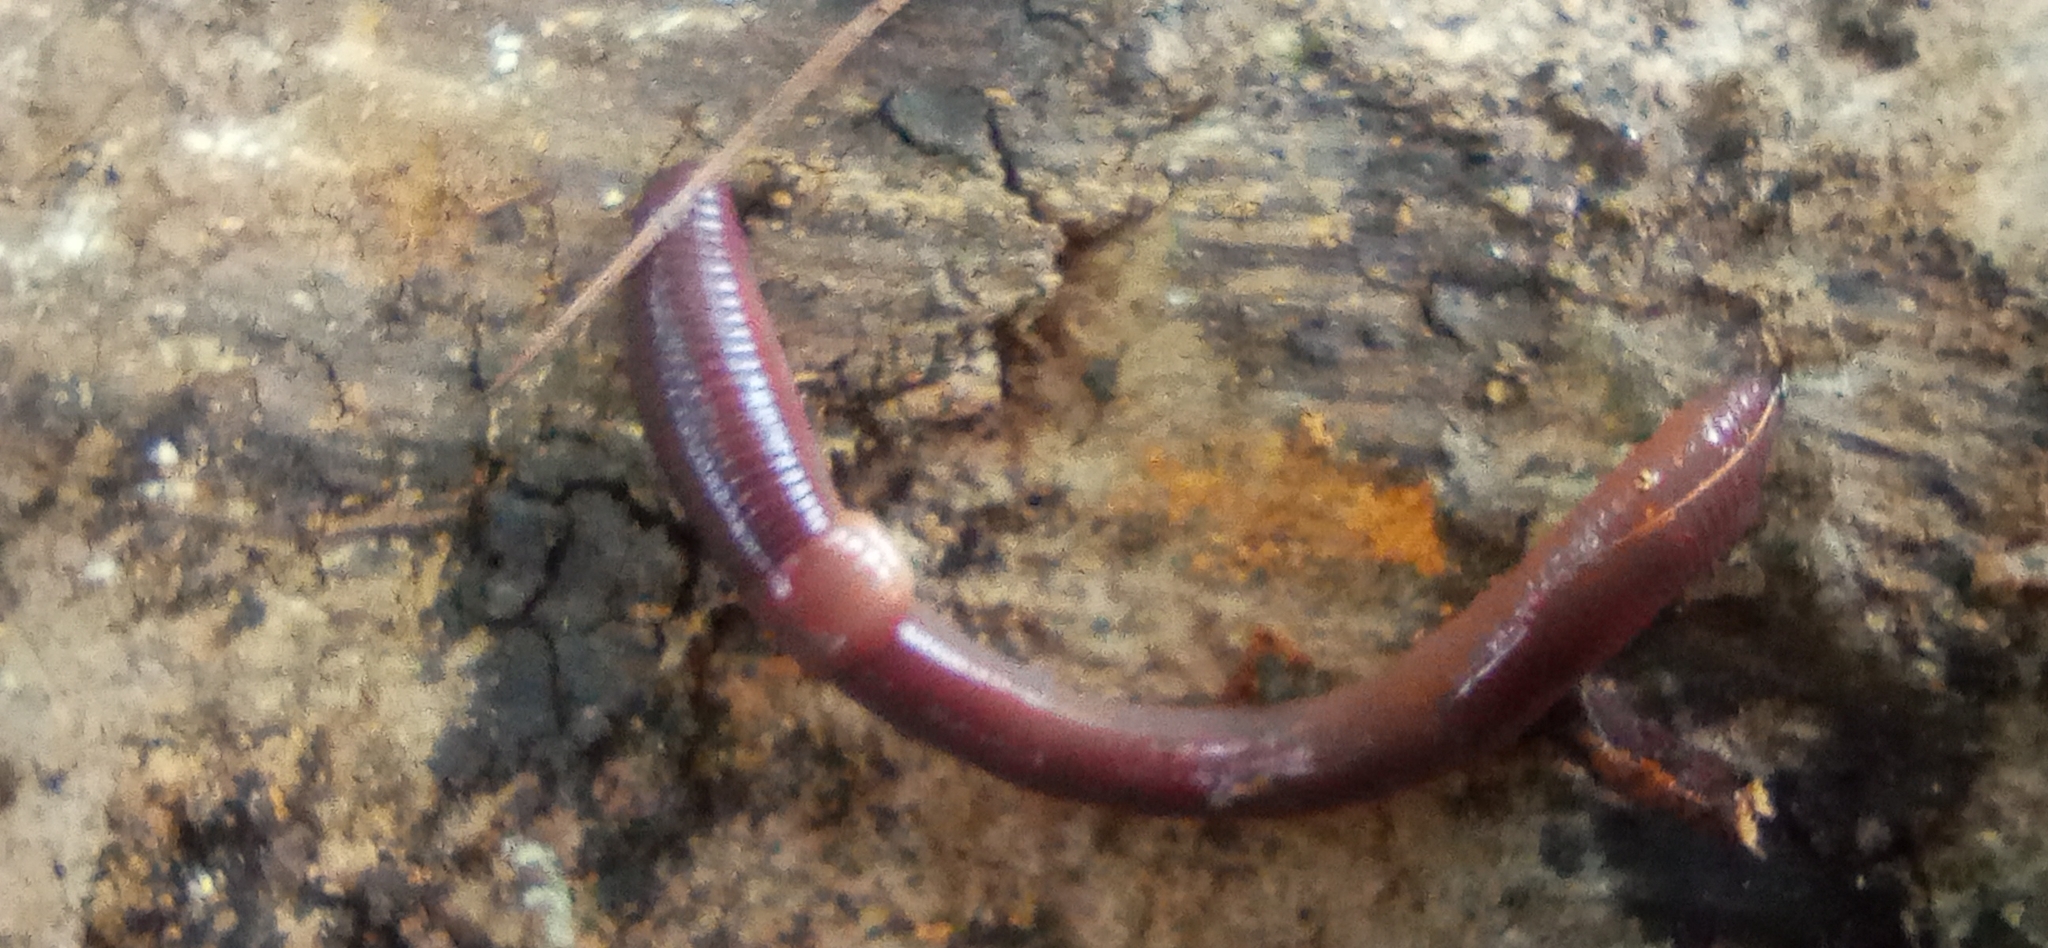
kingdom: Animalia
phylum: Annelida
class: Clitellata
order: Crassiclitellata
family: Lumbricidae
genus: Lumbricus
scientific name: Lumbricus rubellus
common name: Red worm
